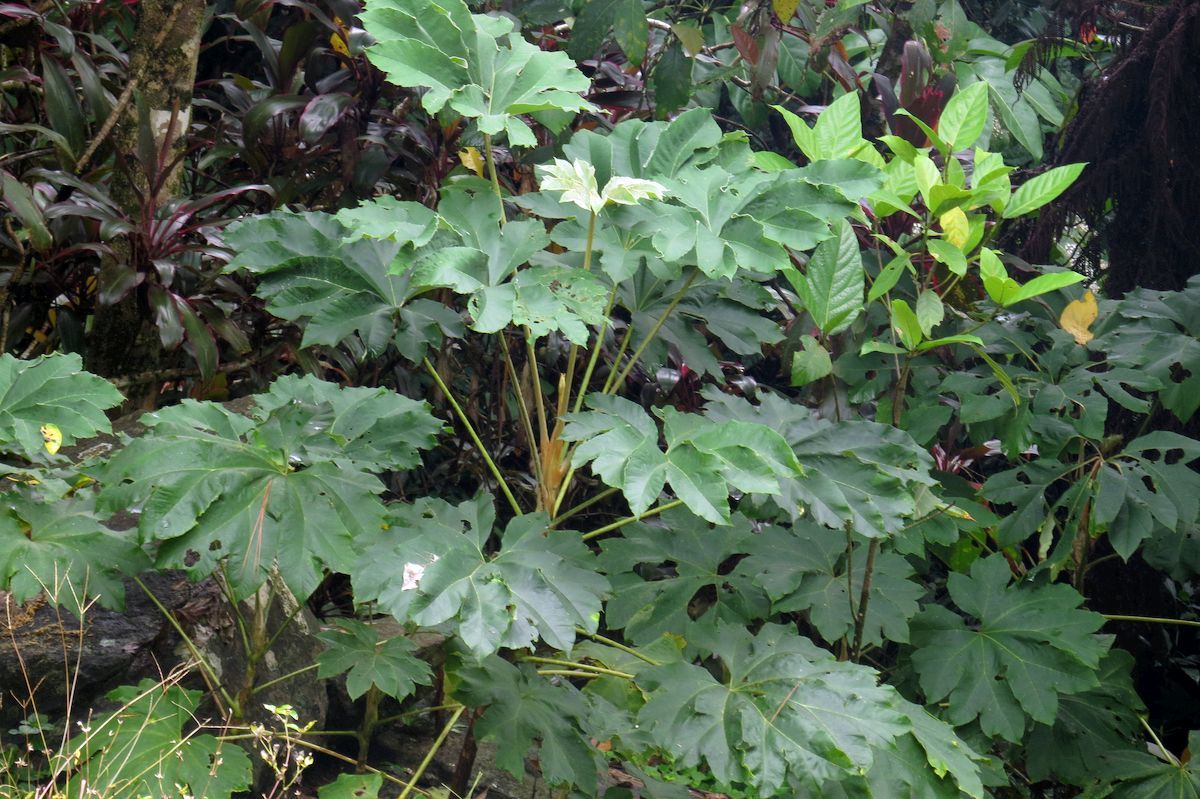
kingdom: Plantae
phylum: Tracheophyta
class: Magnoliopsida
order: Apiales
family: Araliaceae
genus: Tetrapanax
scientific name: Tetrapanax papyrifer
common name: Rice-paper plant
